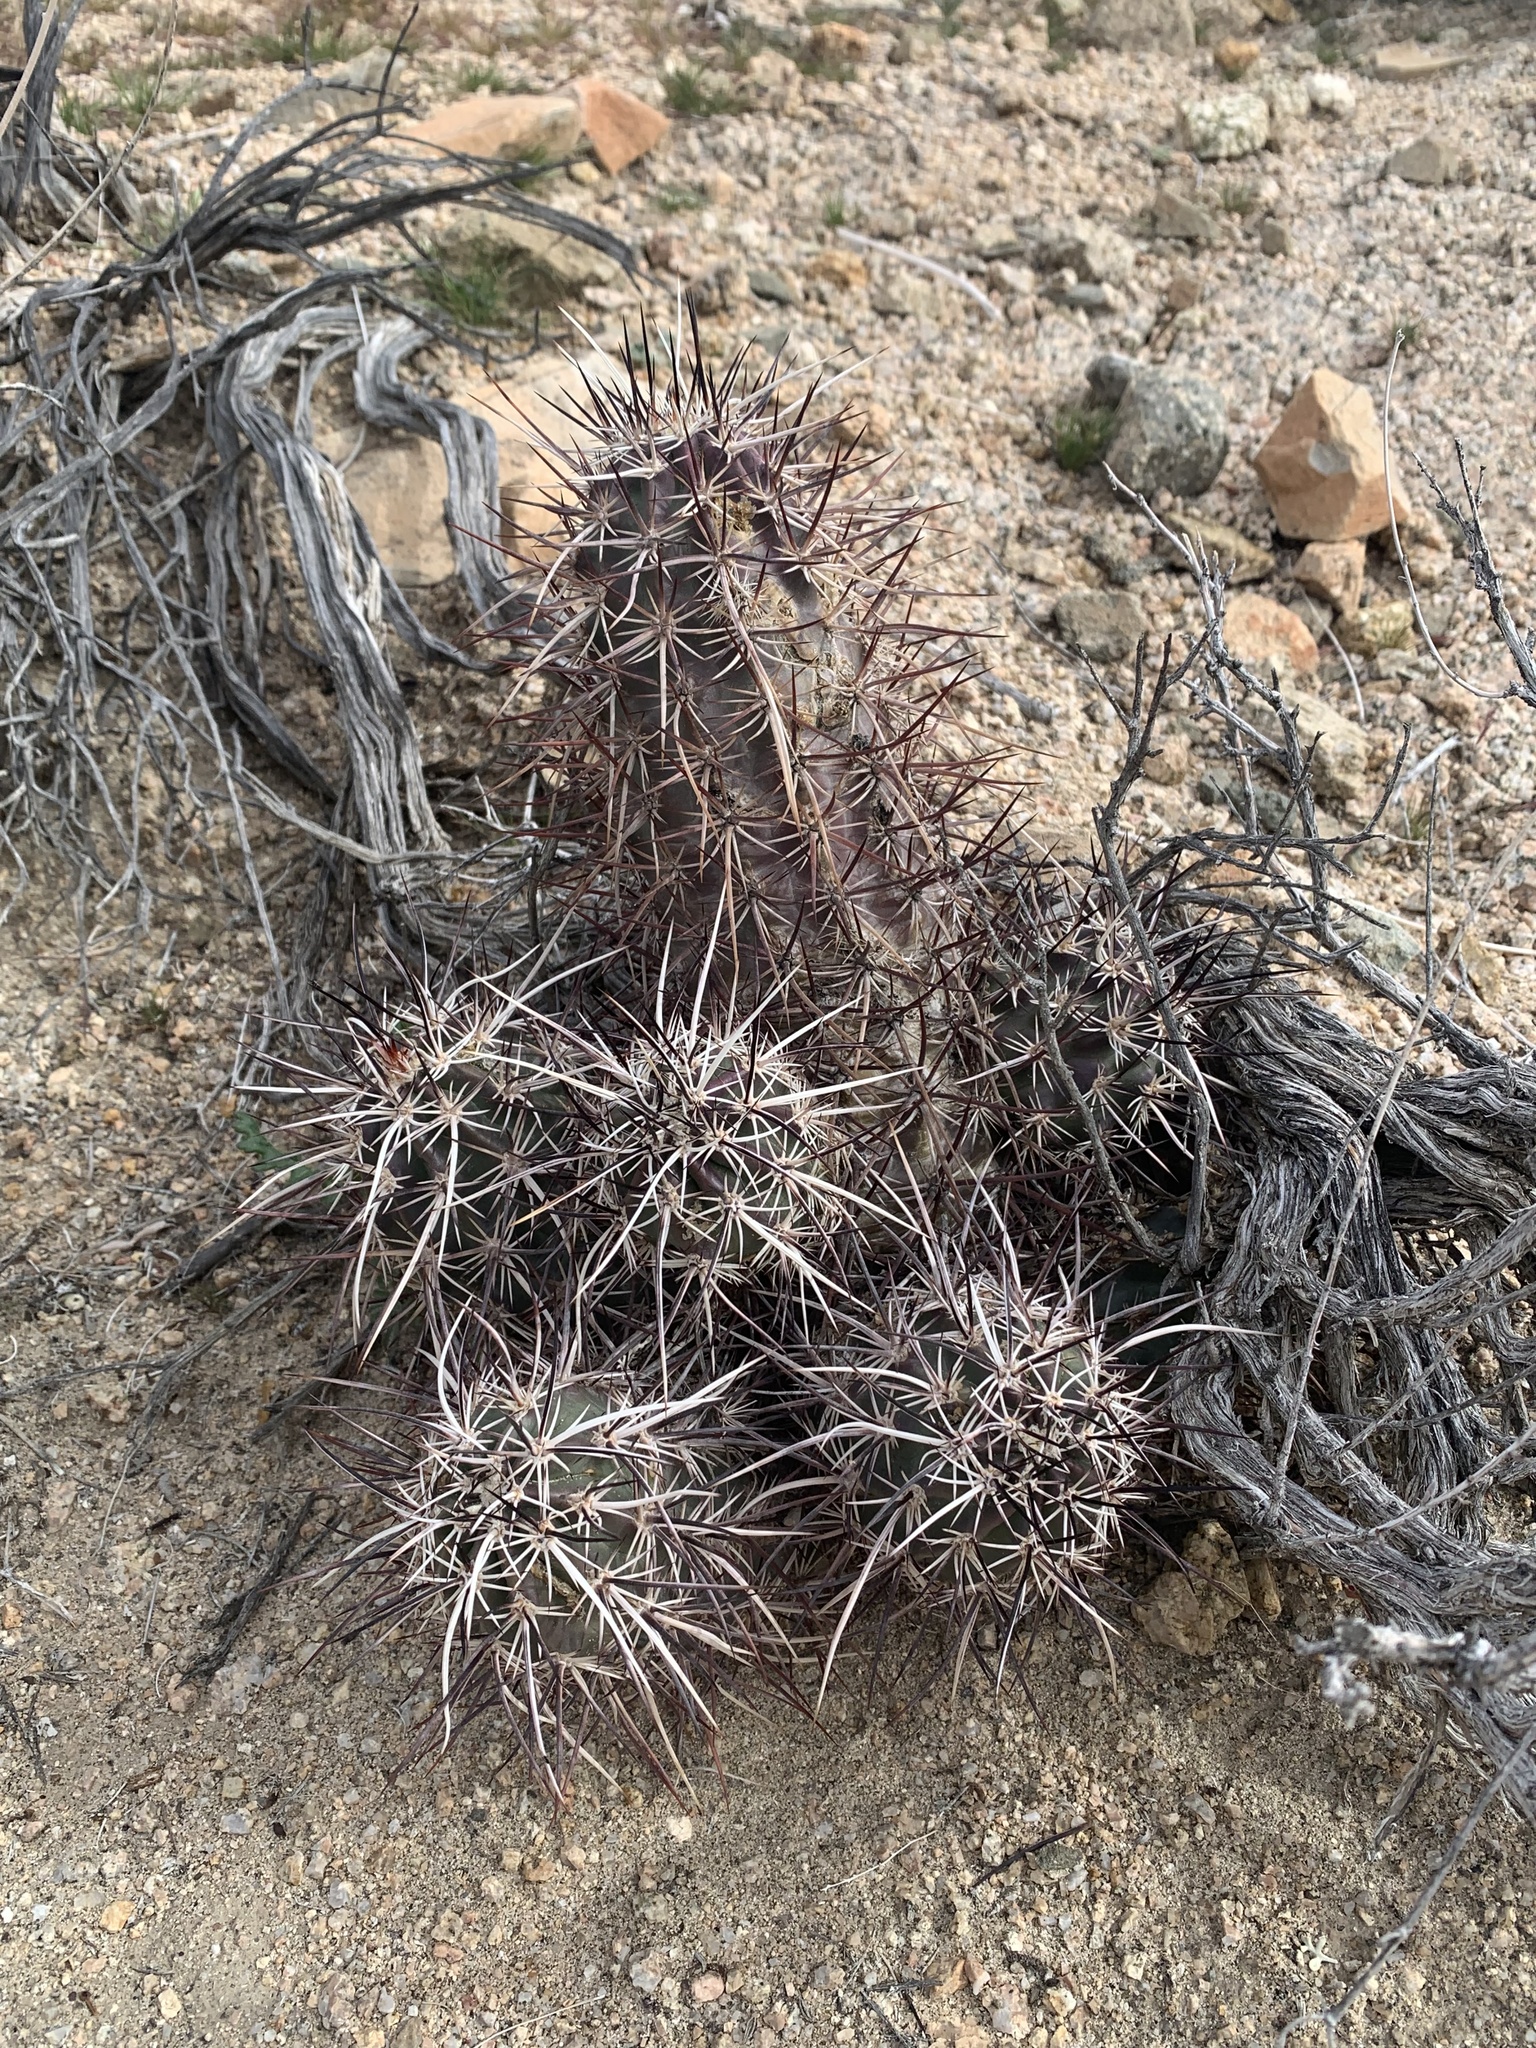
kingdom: Plantae
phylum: Tracheophyta
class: Magnoliopsida
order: Caryophyllales
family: Cactaceae
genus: Echinocereus
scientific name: Echinocereus engelmannii
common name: Engelmann's hedgehog cactus
